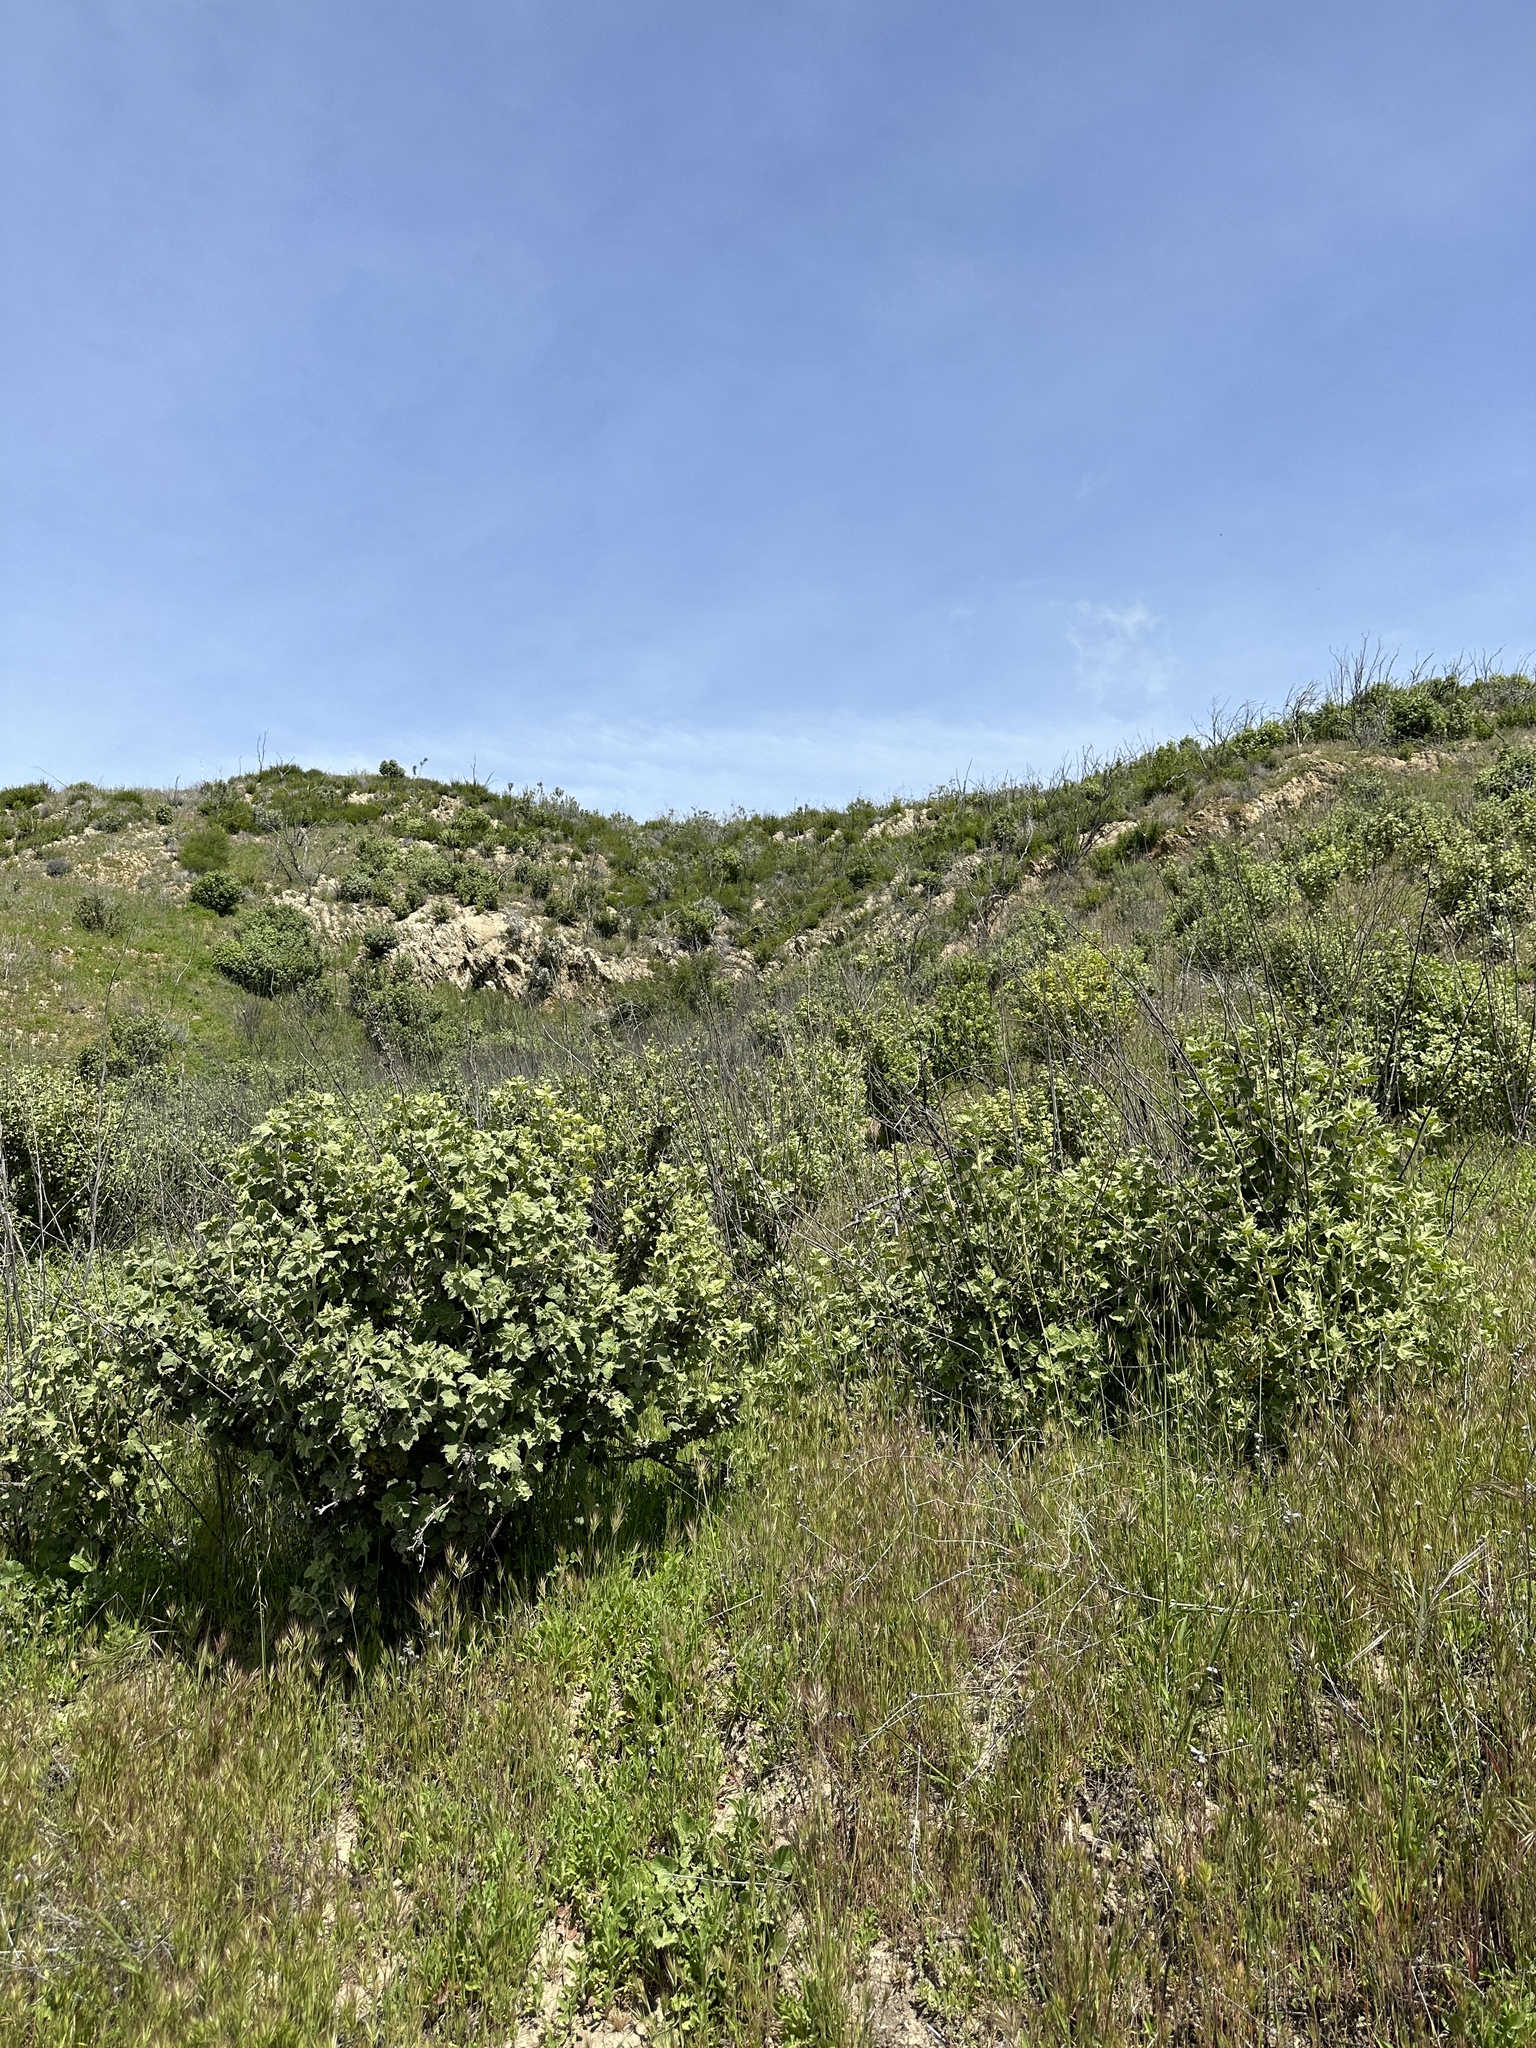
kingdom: Plantae
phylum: Tracheophyta
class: Magnoliopsida
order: Malvales
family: Malvaceae
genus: Malacothamnus
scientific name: Malacothamnus aboriginum
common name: Indian valley bush-mallow
